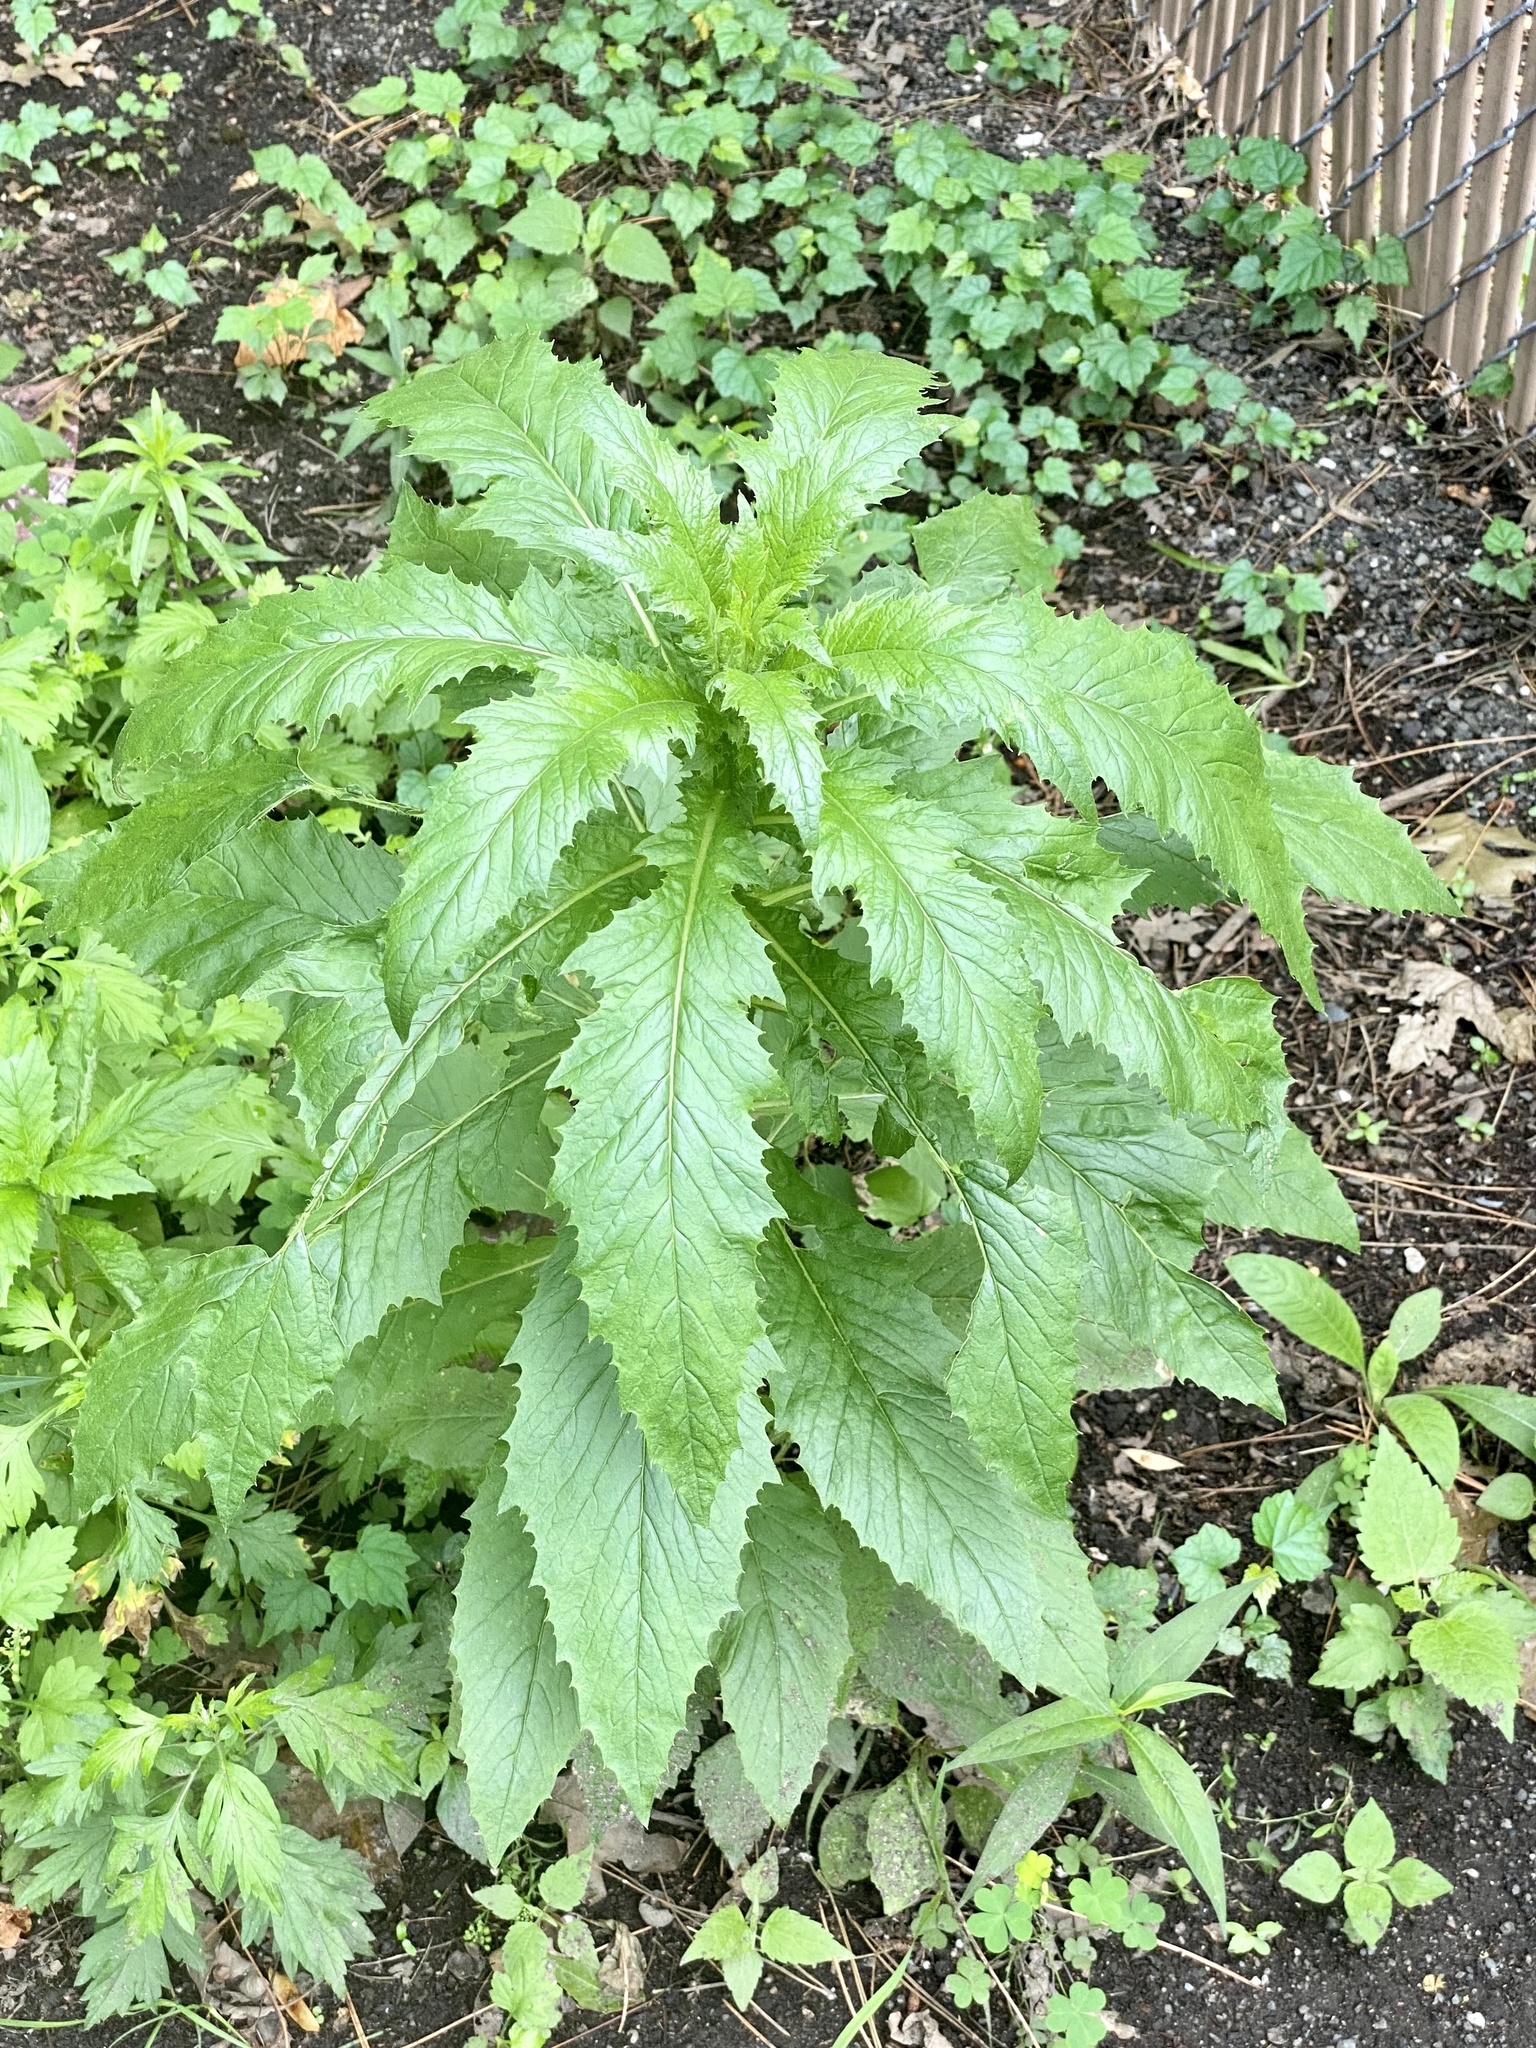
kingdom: Plantae
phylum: Tracheophyta
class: Magnoliopsida
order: Asterales
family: Asteraceae
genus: Erechtites
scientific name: Erechtites hieraciifolius
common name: American burnweed
